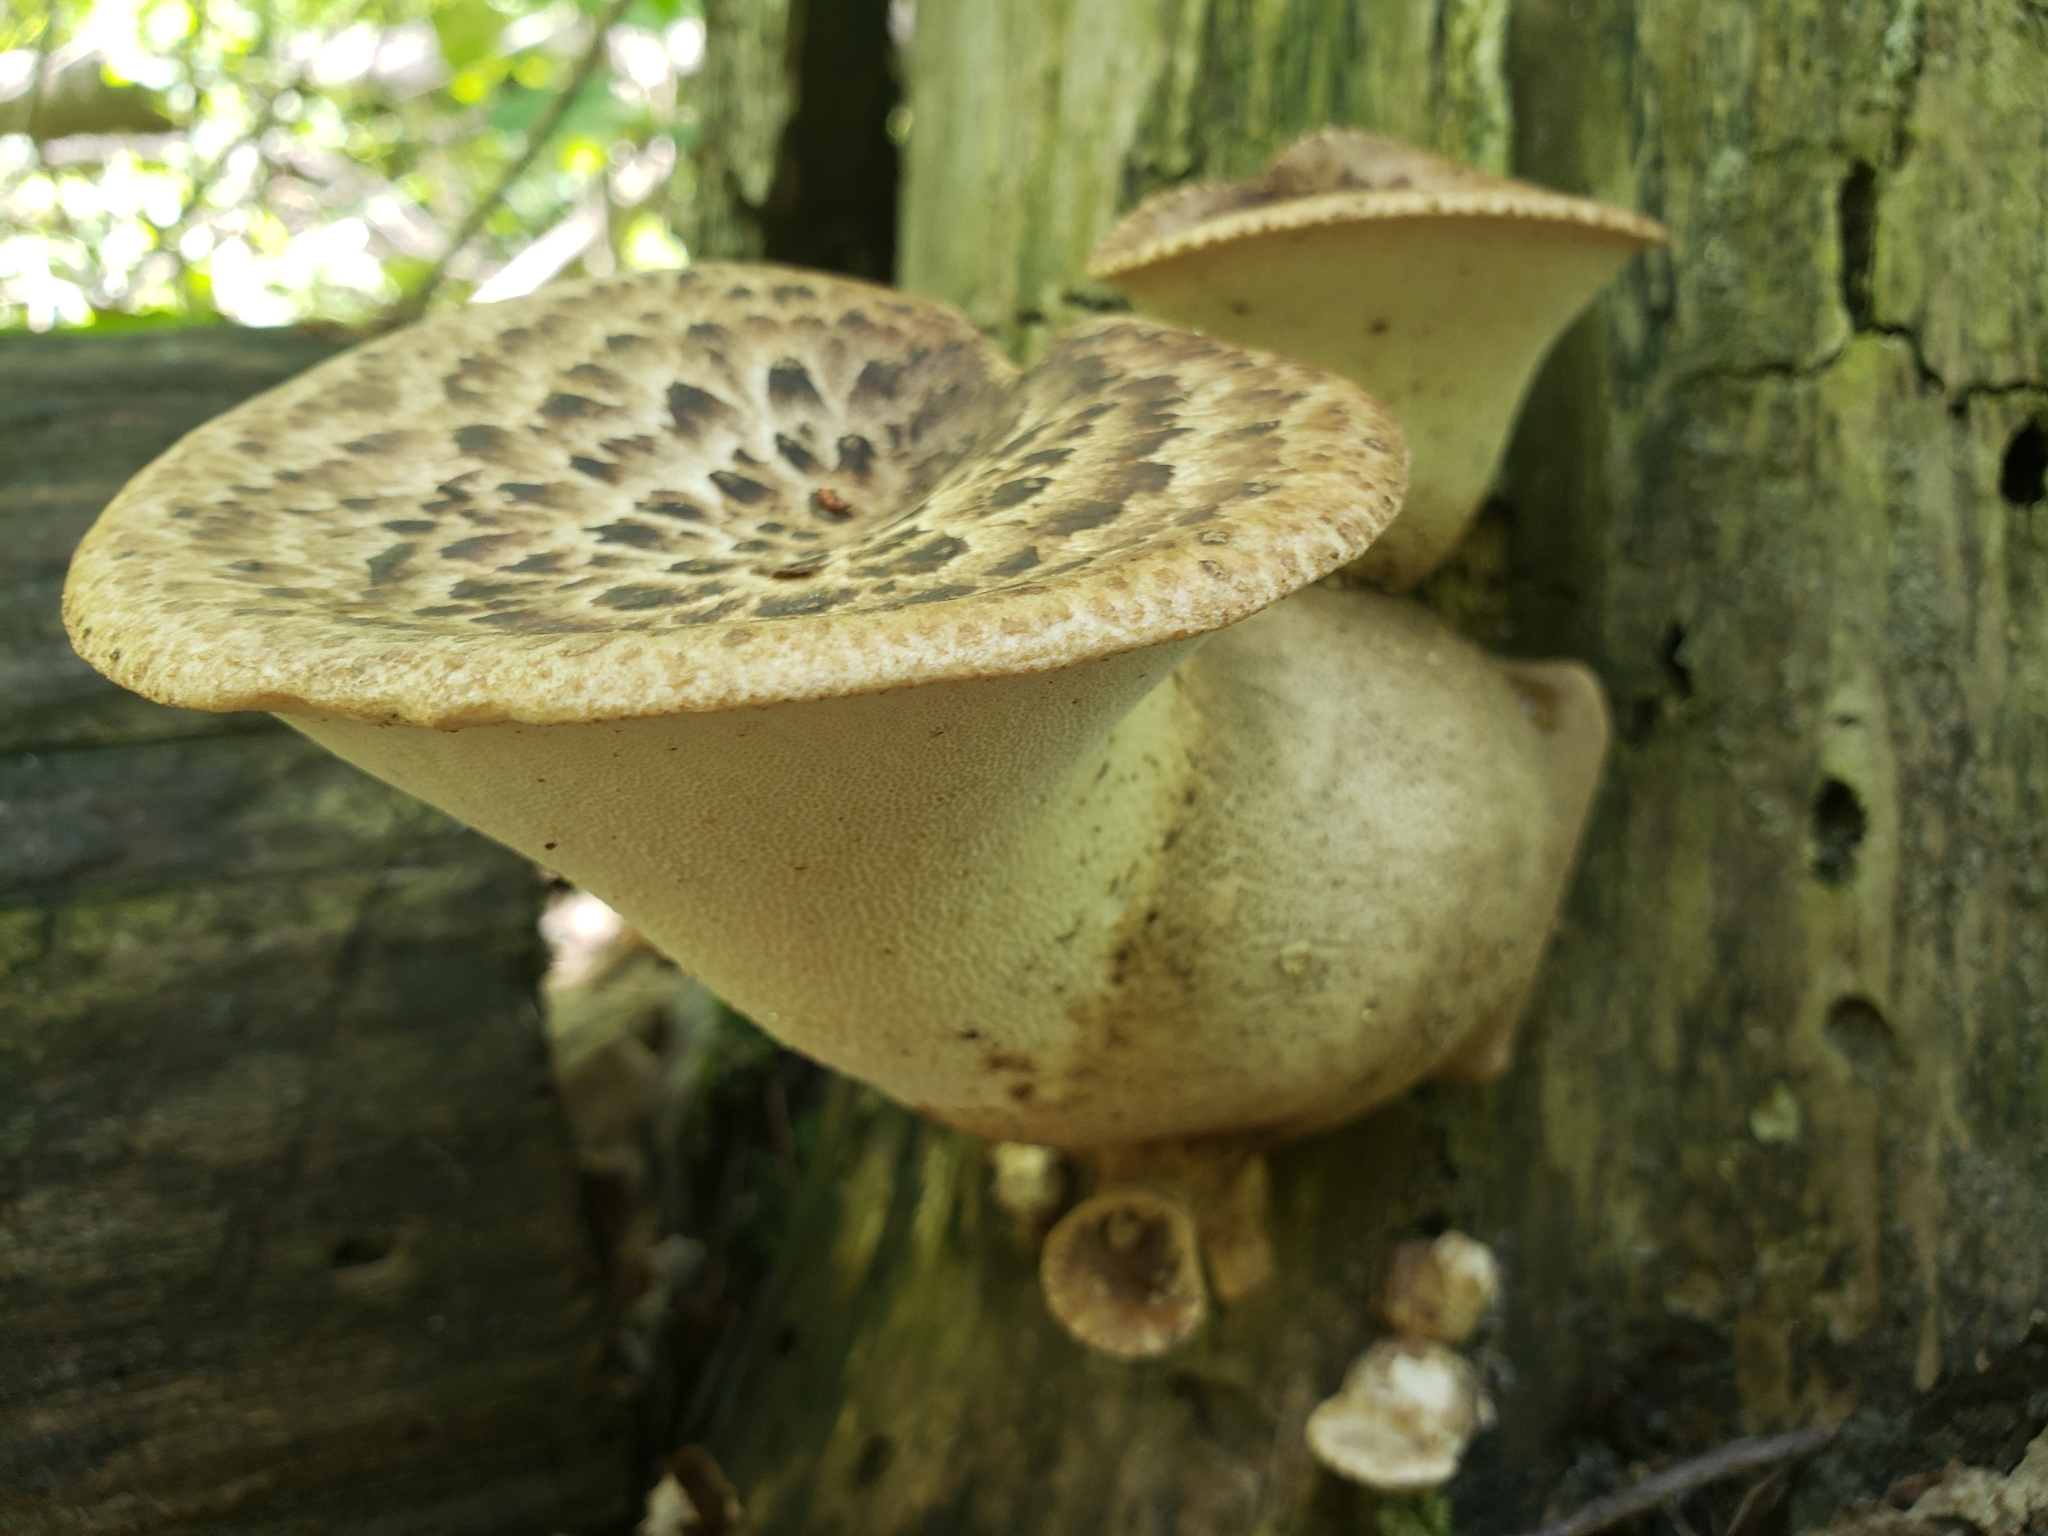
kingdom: Fungi
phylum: Basidiomycota
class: Agaricomycetes
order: Polyporales
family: Polyporaceae
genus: Cerioporus
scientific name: Cerioporus squamosus
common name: Dryad's saddle
